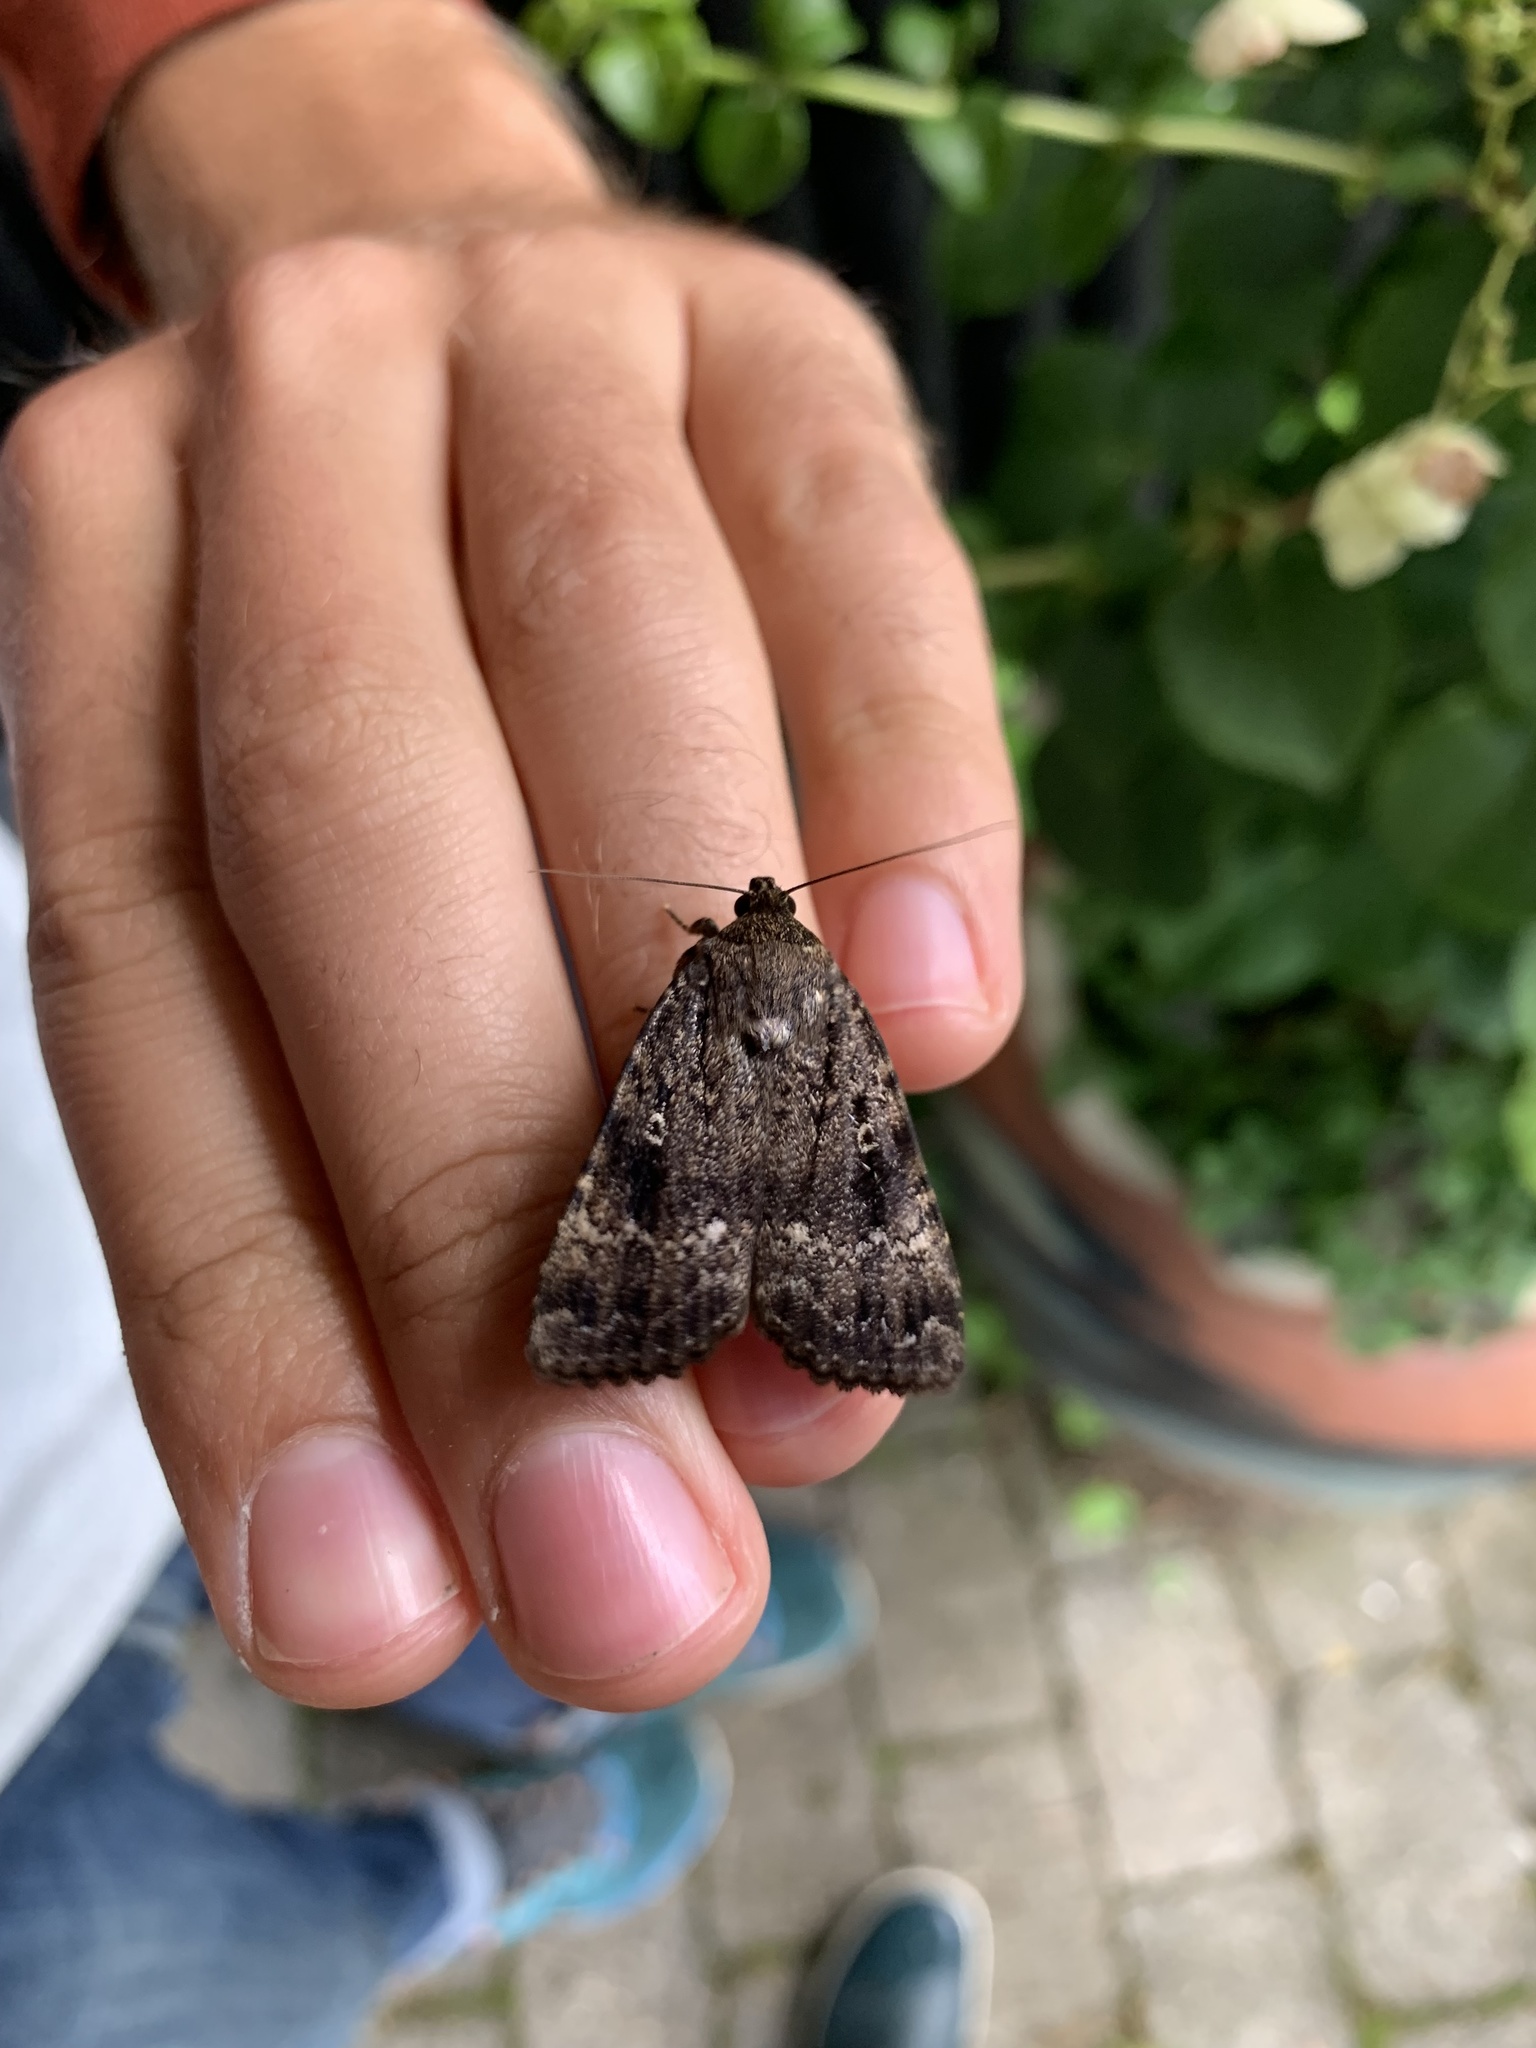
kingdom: Animalia
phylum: Arthropoda
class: Insecta
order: Lepidoptera
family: Noctuidae
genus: Amphipyra
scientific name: Amphipyra pyramidea
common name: Copper underwing
